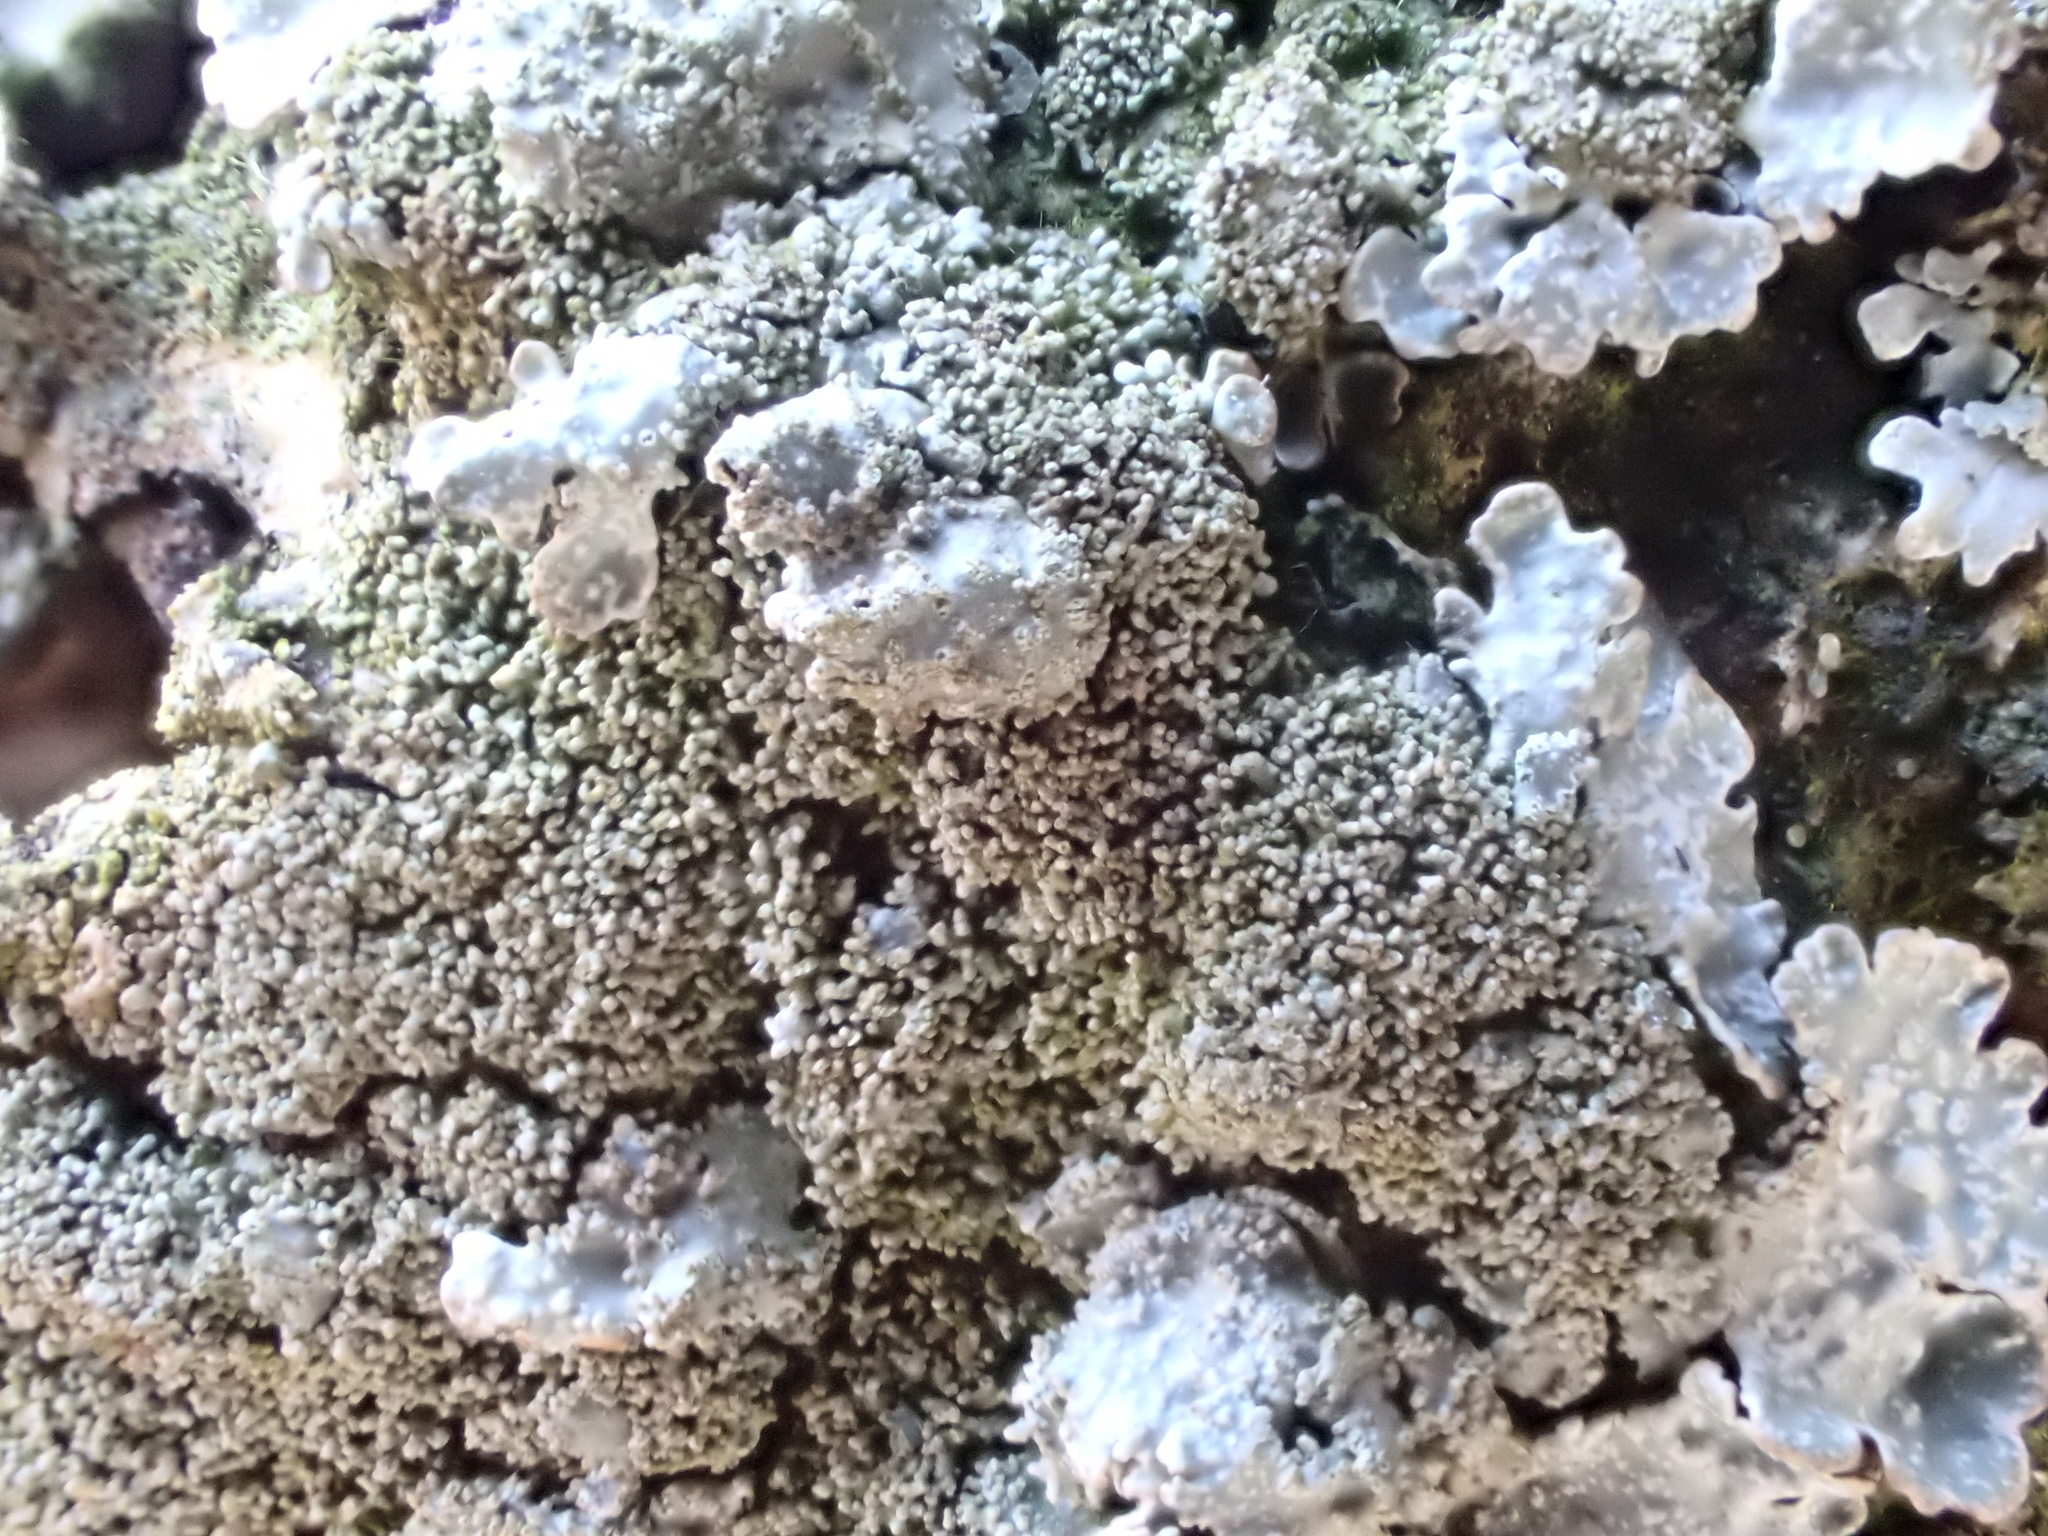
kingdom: Fungi
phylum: Ascomycota
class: Lecanoromycetes
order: Lecanorales
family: Parmeliaceae
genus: Parmelia
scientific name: Parmelia saxatilis
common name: Salted shield lichen
